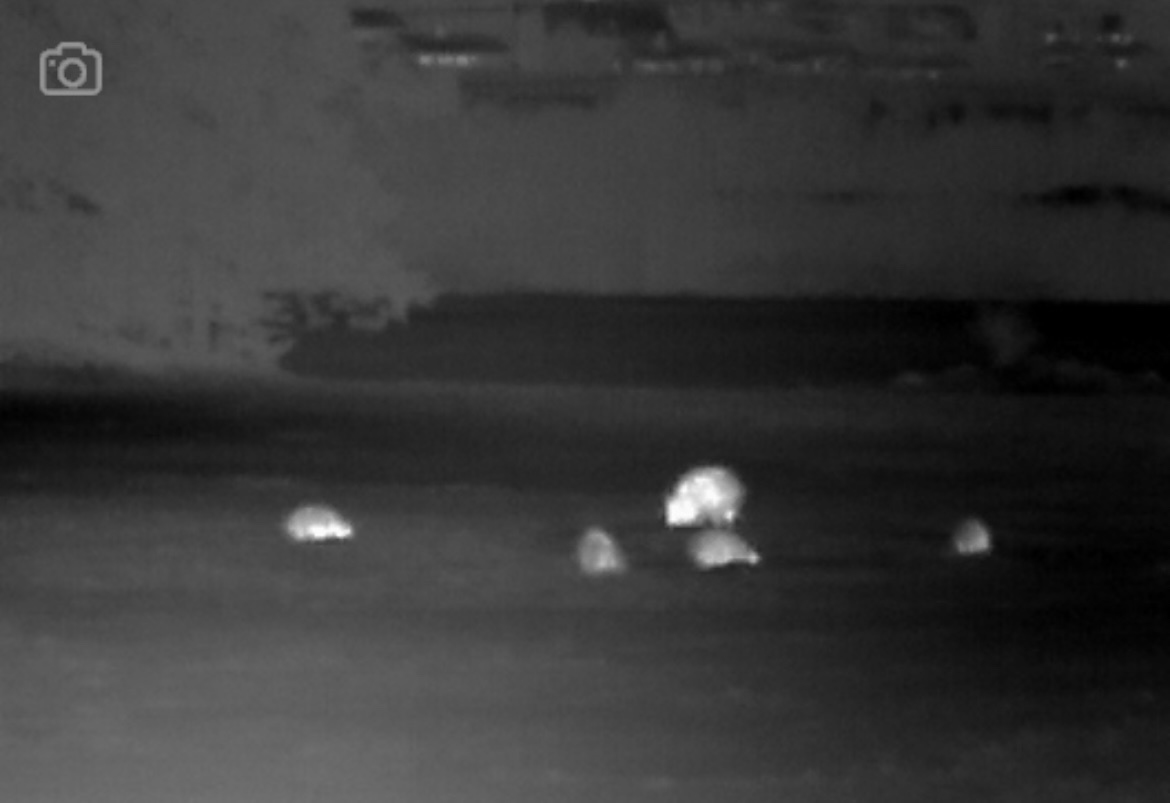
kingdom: Animalia
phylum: Chordata
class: Mammalia
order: Artiodactyla
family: Suidae
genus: Sus
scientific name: Sus scrofa
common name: Wild boar
